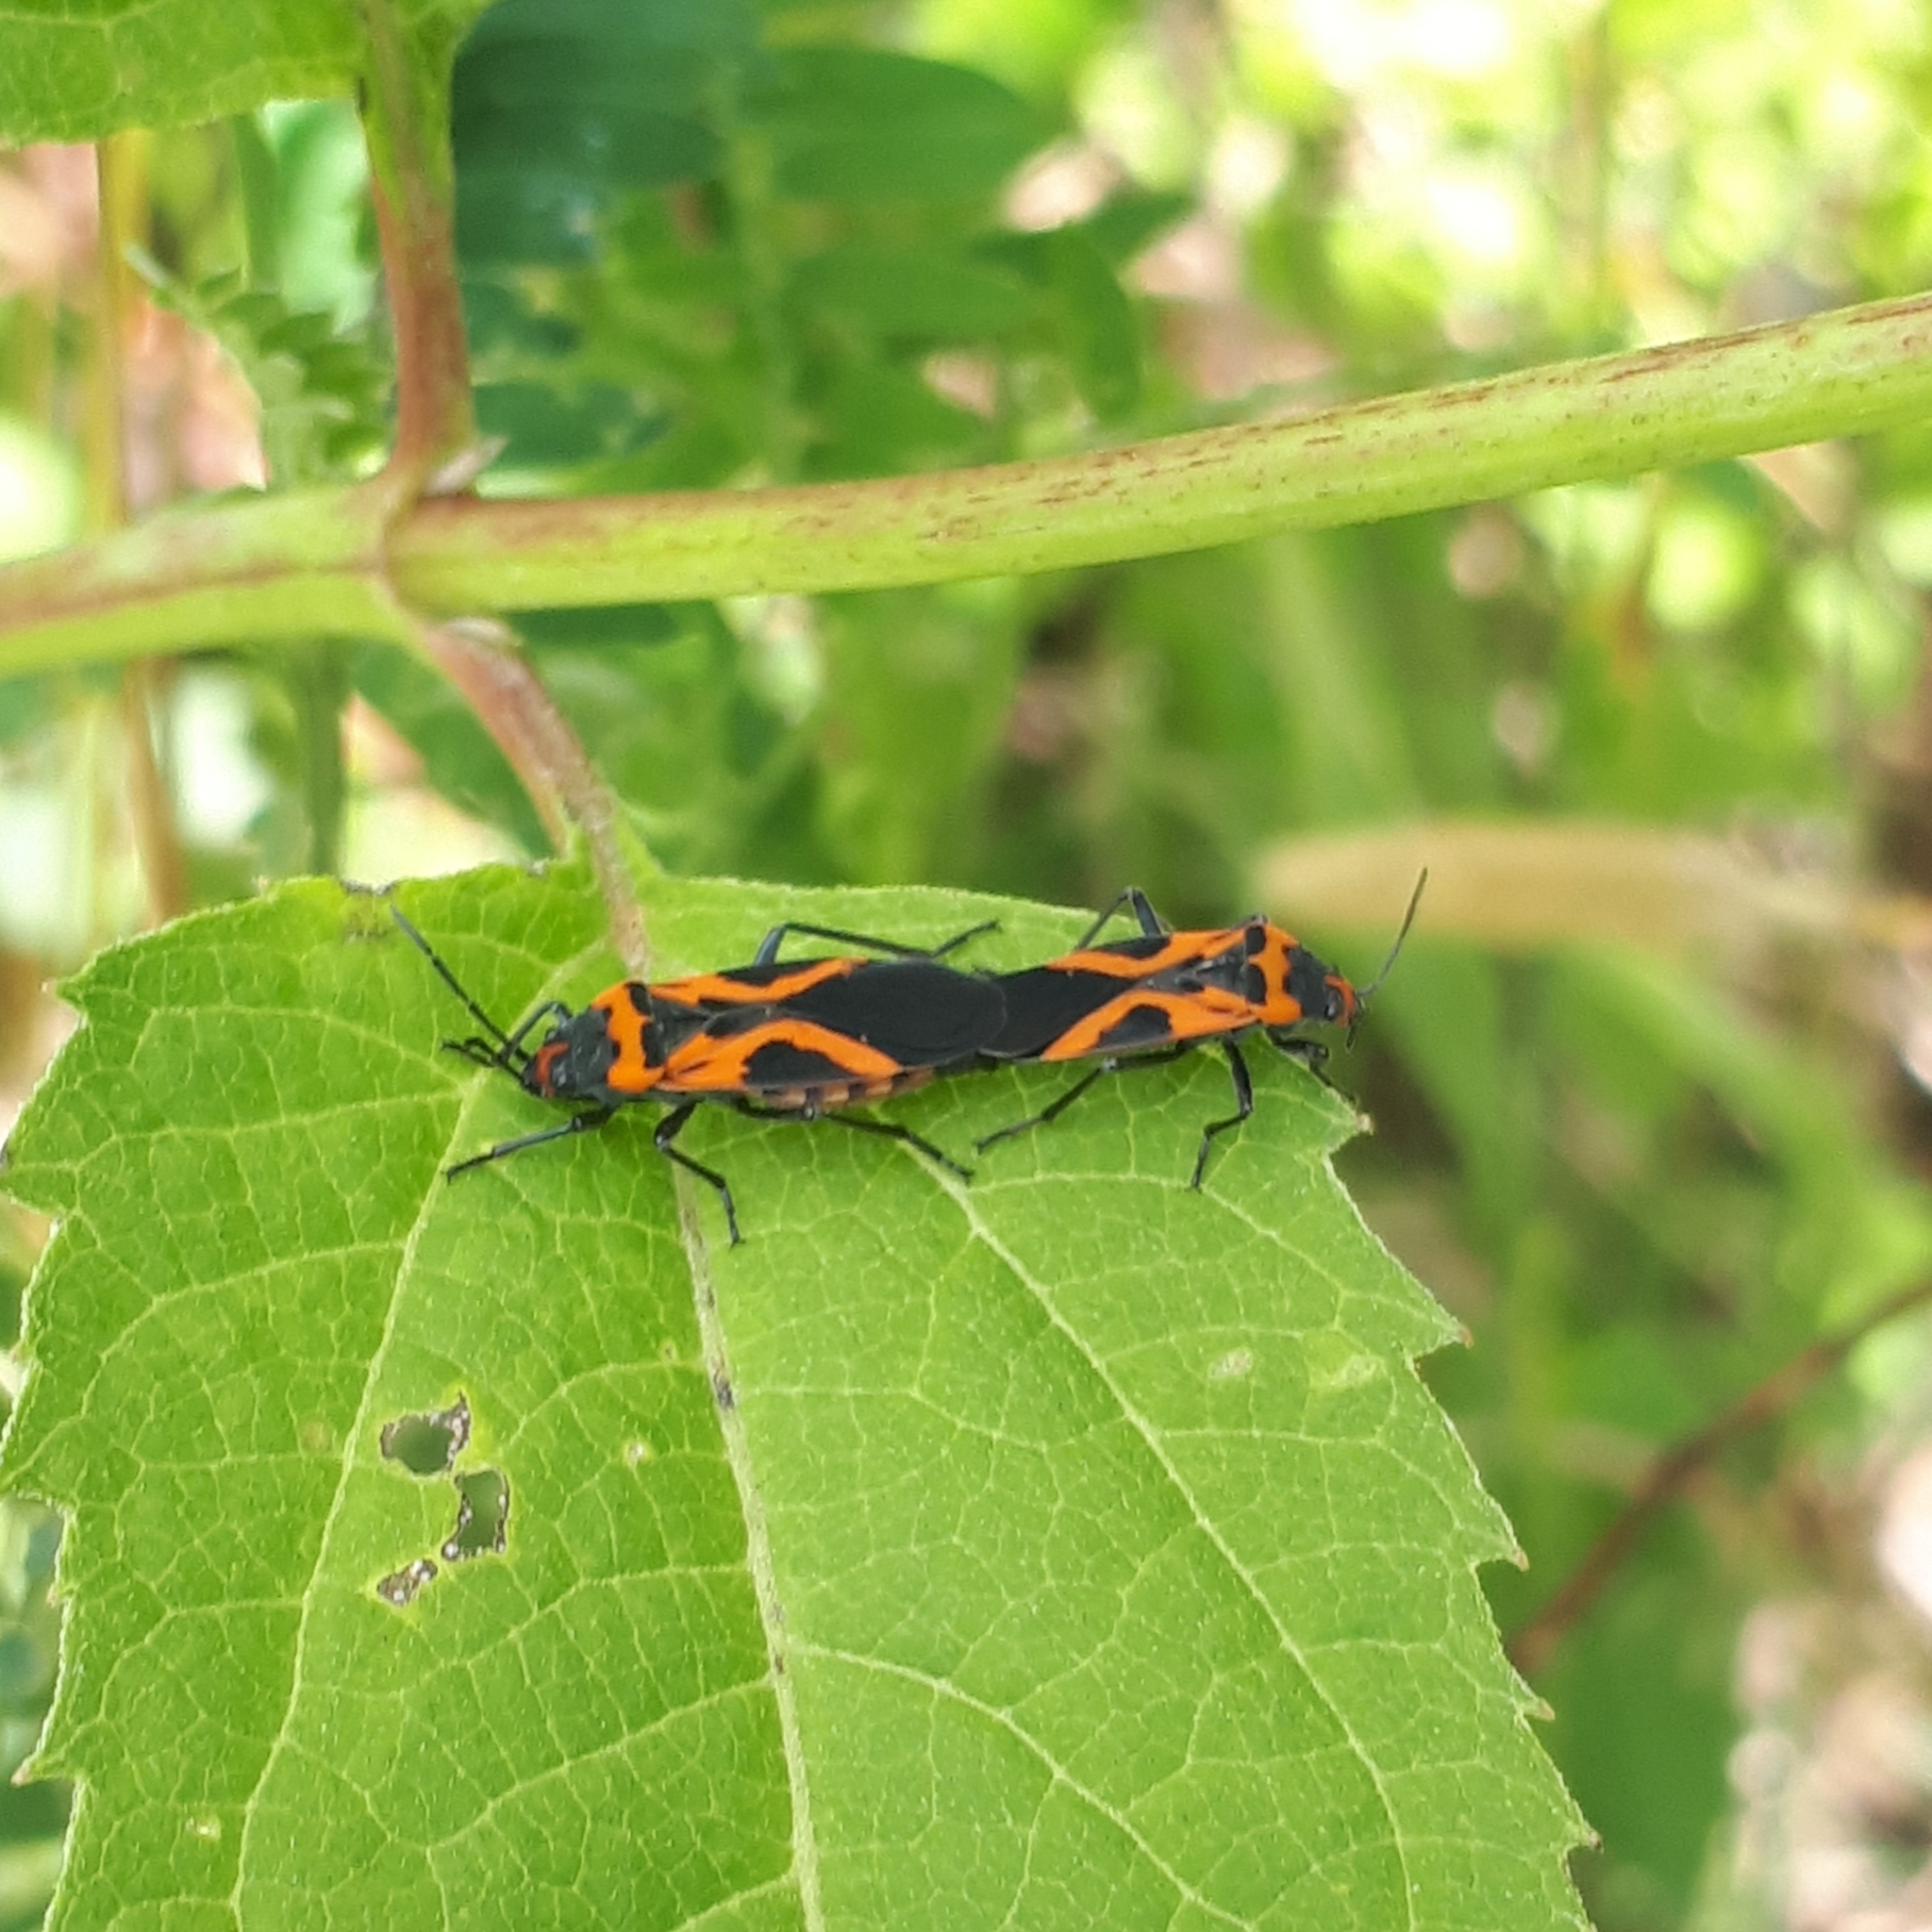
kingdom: Animalia
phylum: Arthropoda
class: Insecta
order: Hemiptera
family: Lygaeidae
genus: Lygaeus
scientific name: Lygaeus turcicus
